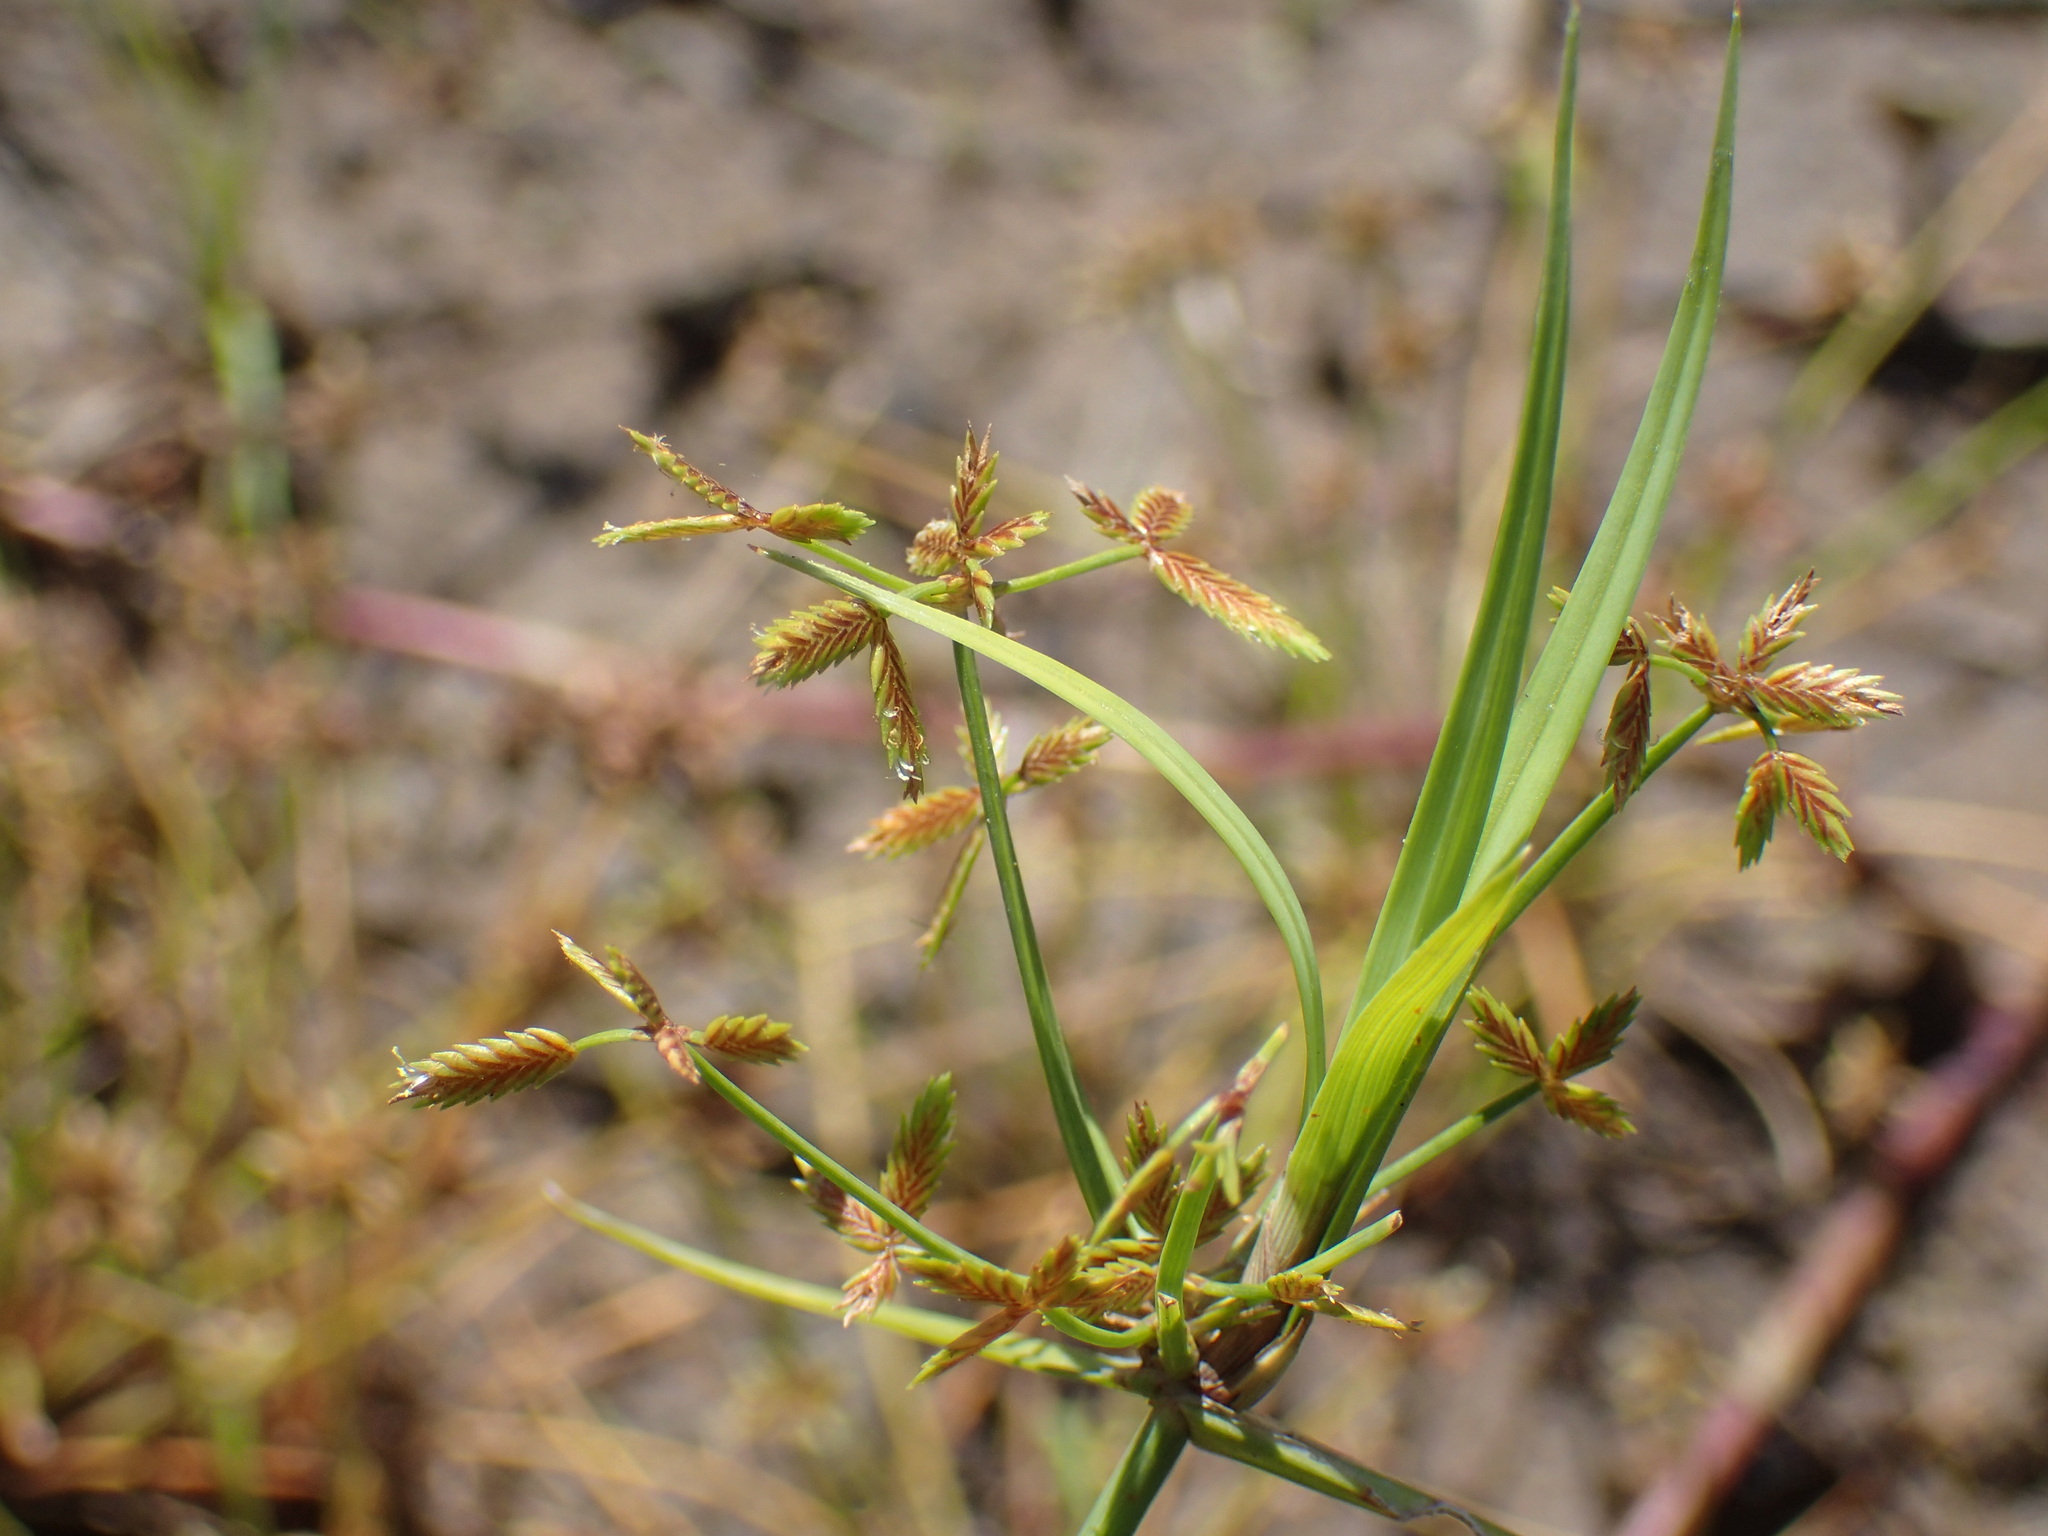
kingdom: Plantae
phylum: Tracheophyta
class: Liliopsida
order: Poales
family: Cyperaceae
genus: Cyperus
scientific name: Cyperus sphaerospermus
